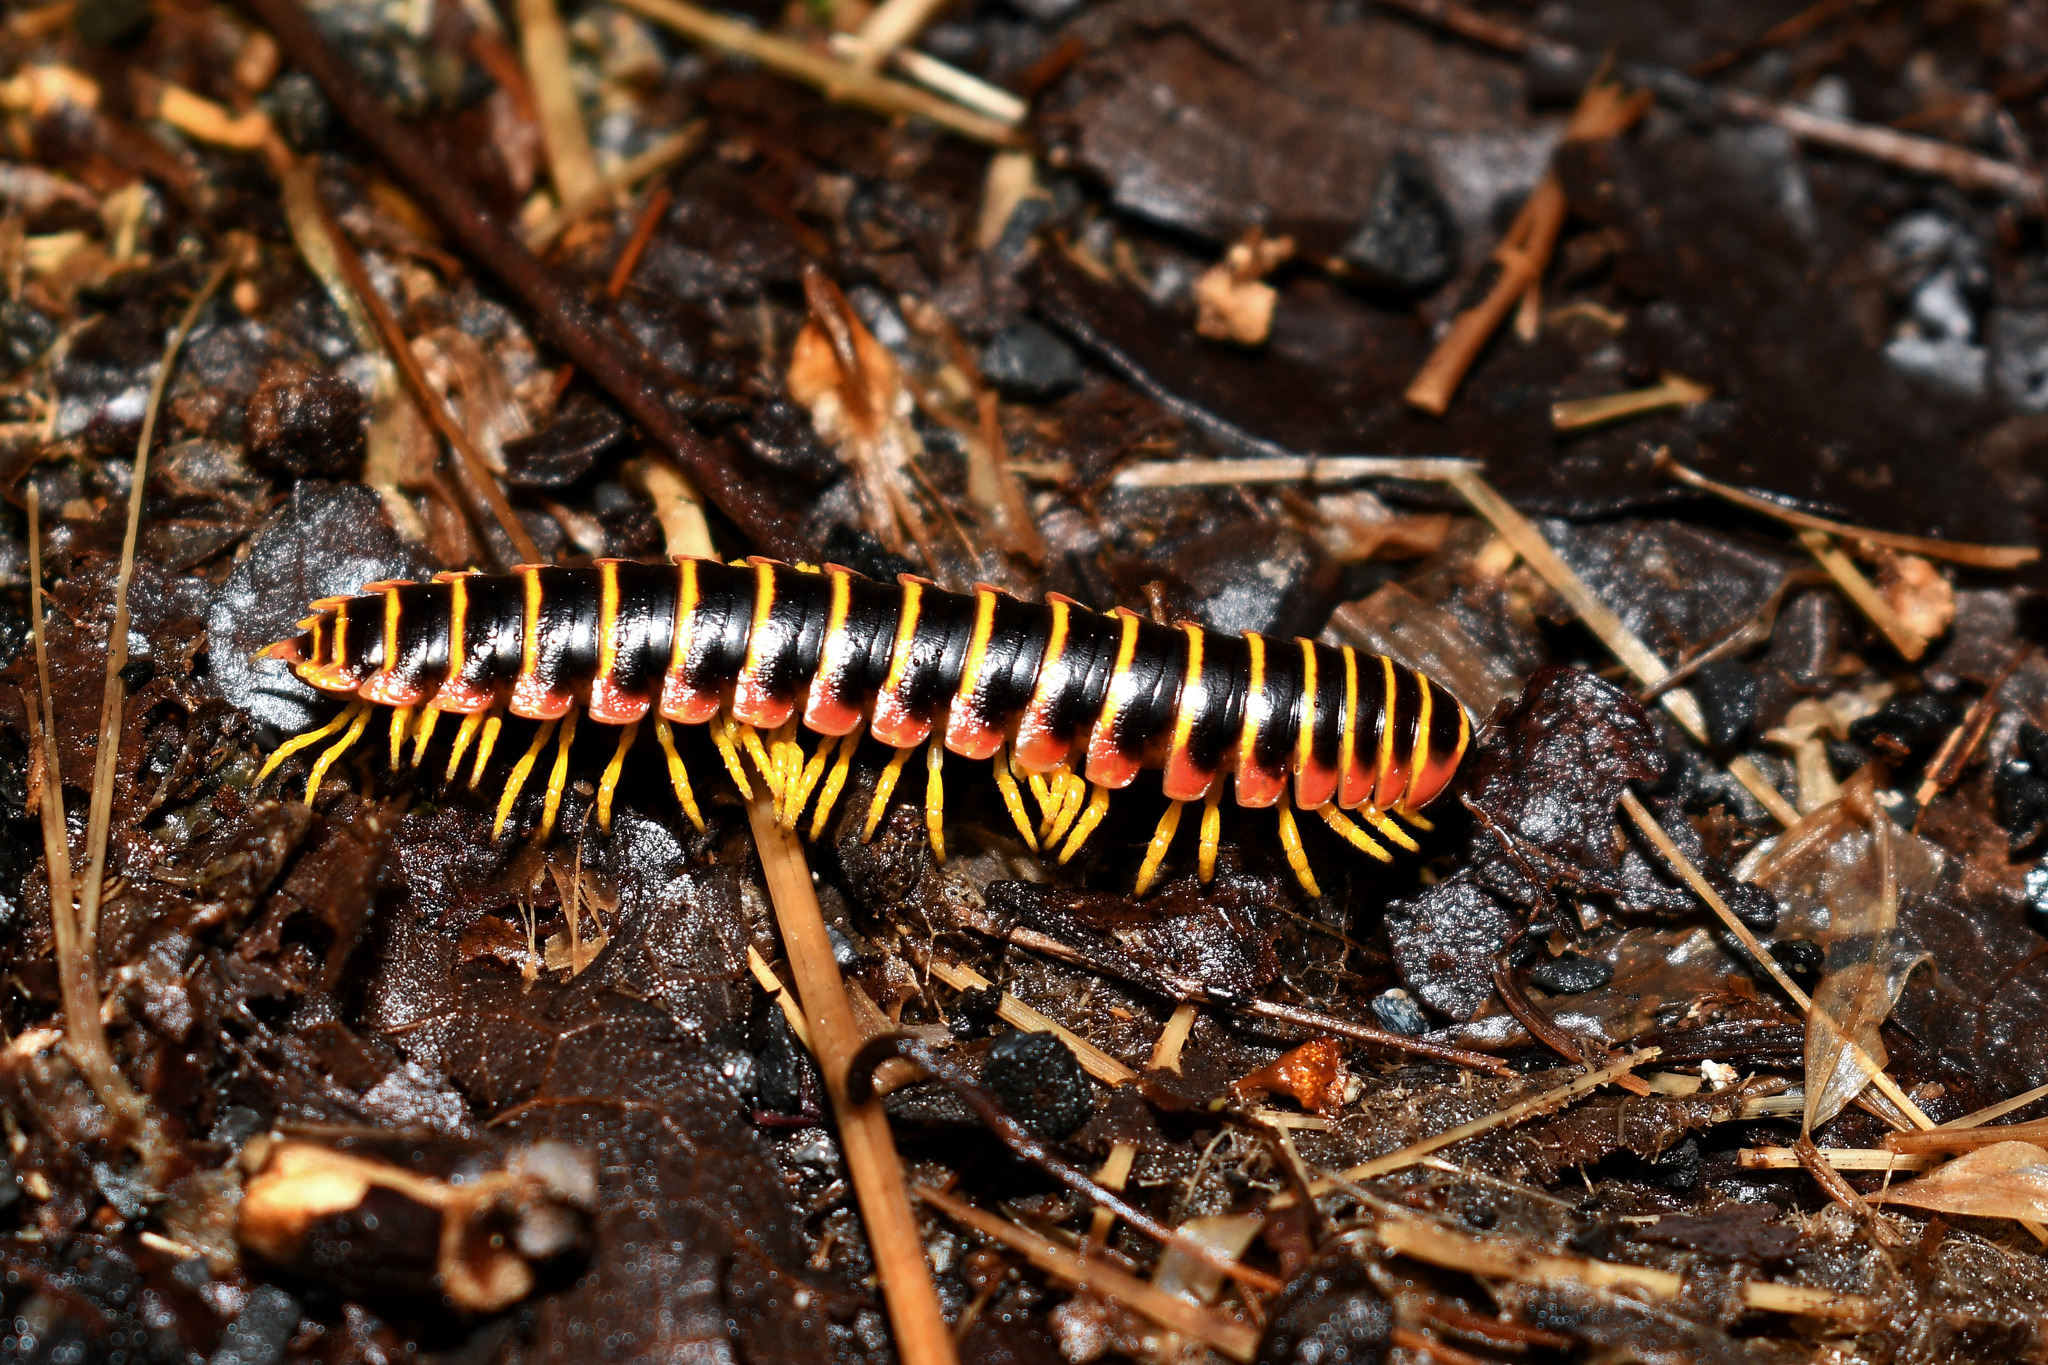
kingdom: Animalia
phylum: Arthropoda
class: Diplopoda
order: Polydesmida
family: Xystodesmidae
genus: Apheloria
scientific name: Apheloria virginiensis
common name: Black-and-gold flat millipede
